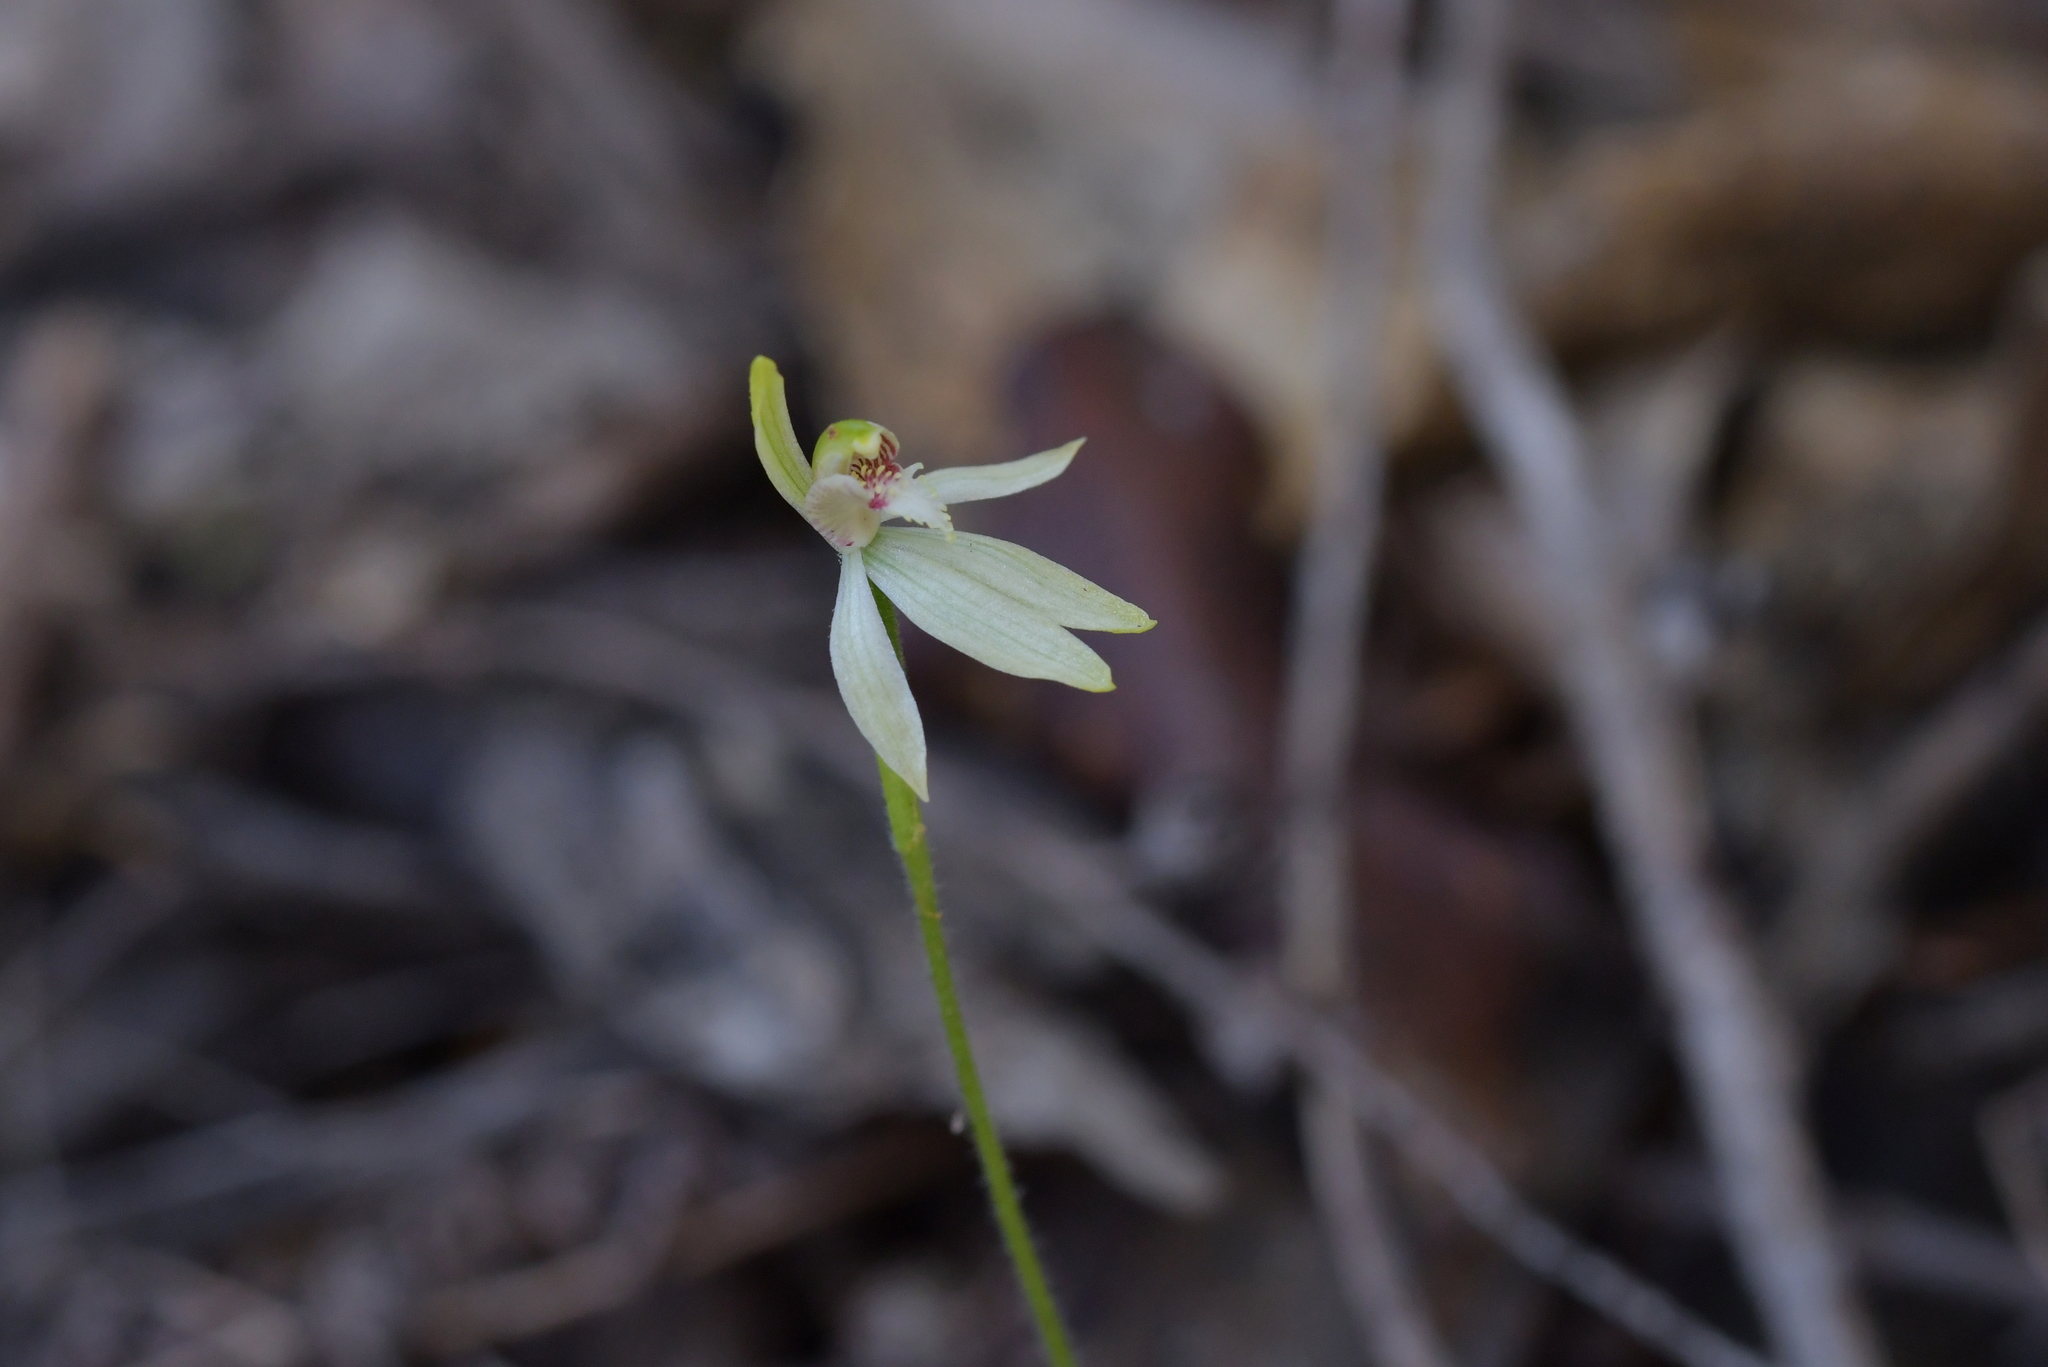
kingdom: Plantae
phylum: Tracheophyta
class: Liliopsida
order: Asparagales
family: Orchidaceae
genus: Caladenia
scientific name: Caladenia chlorostyla
